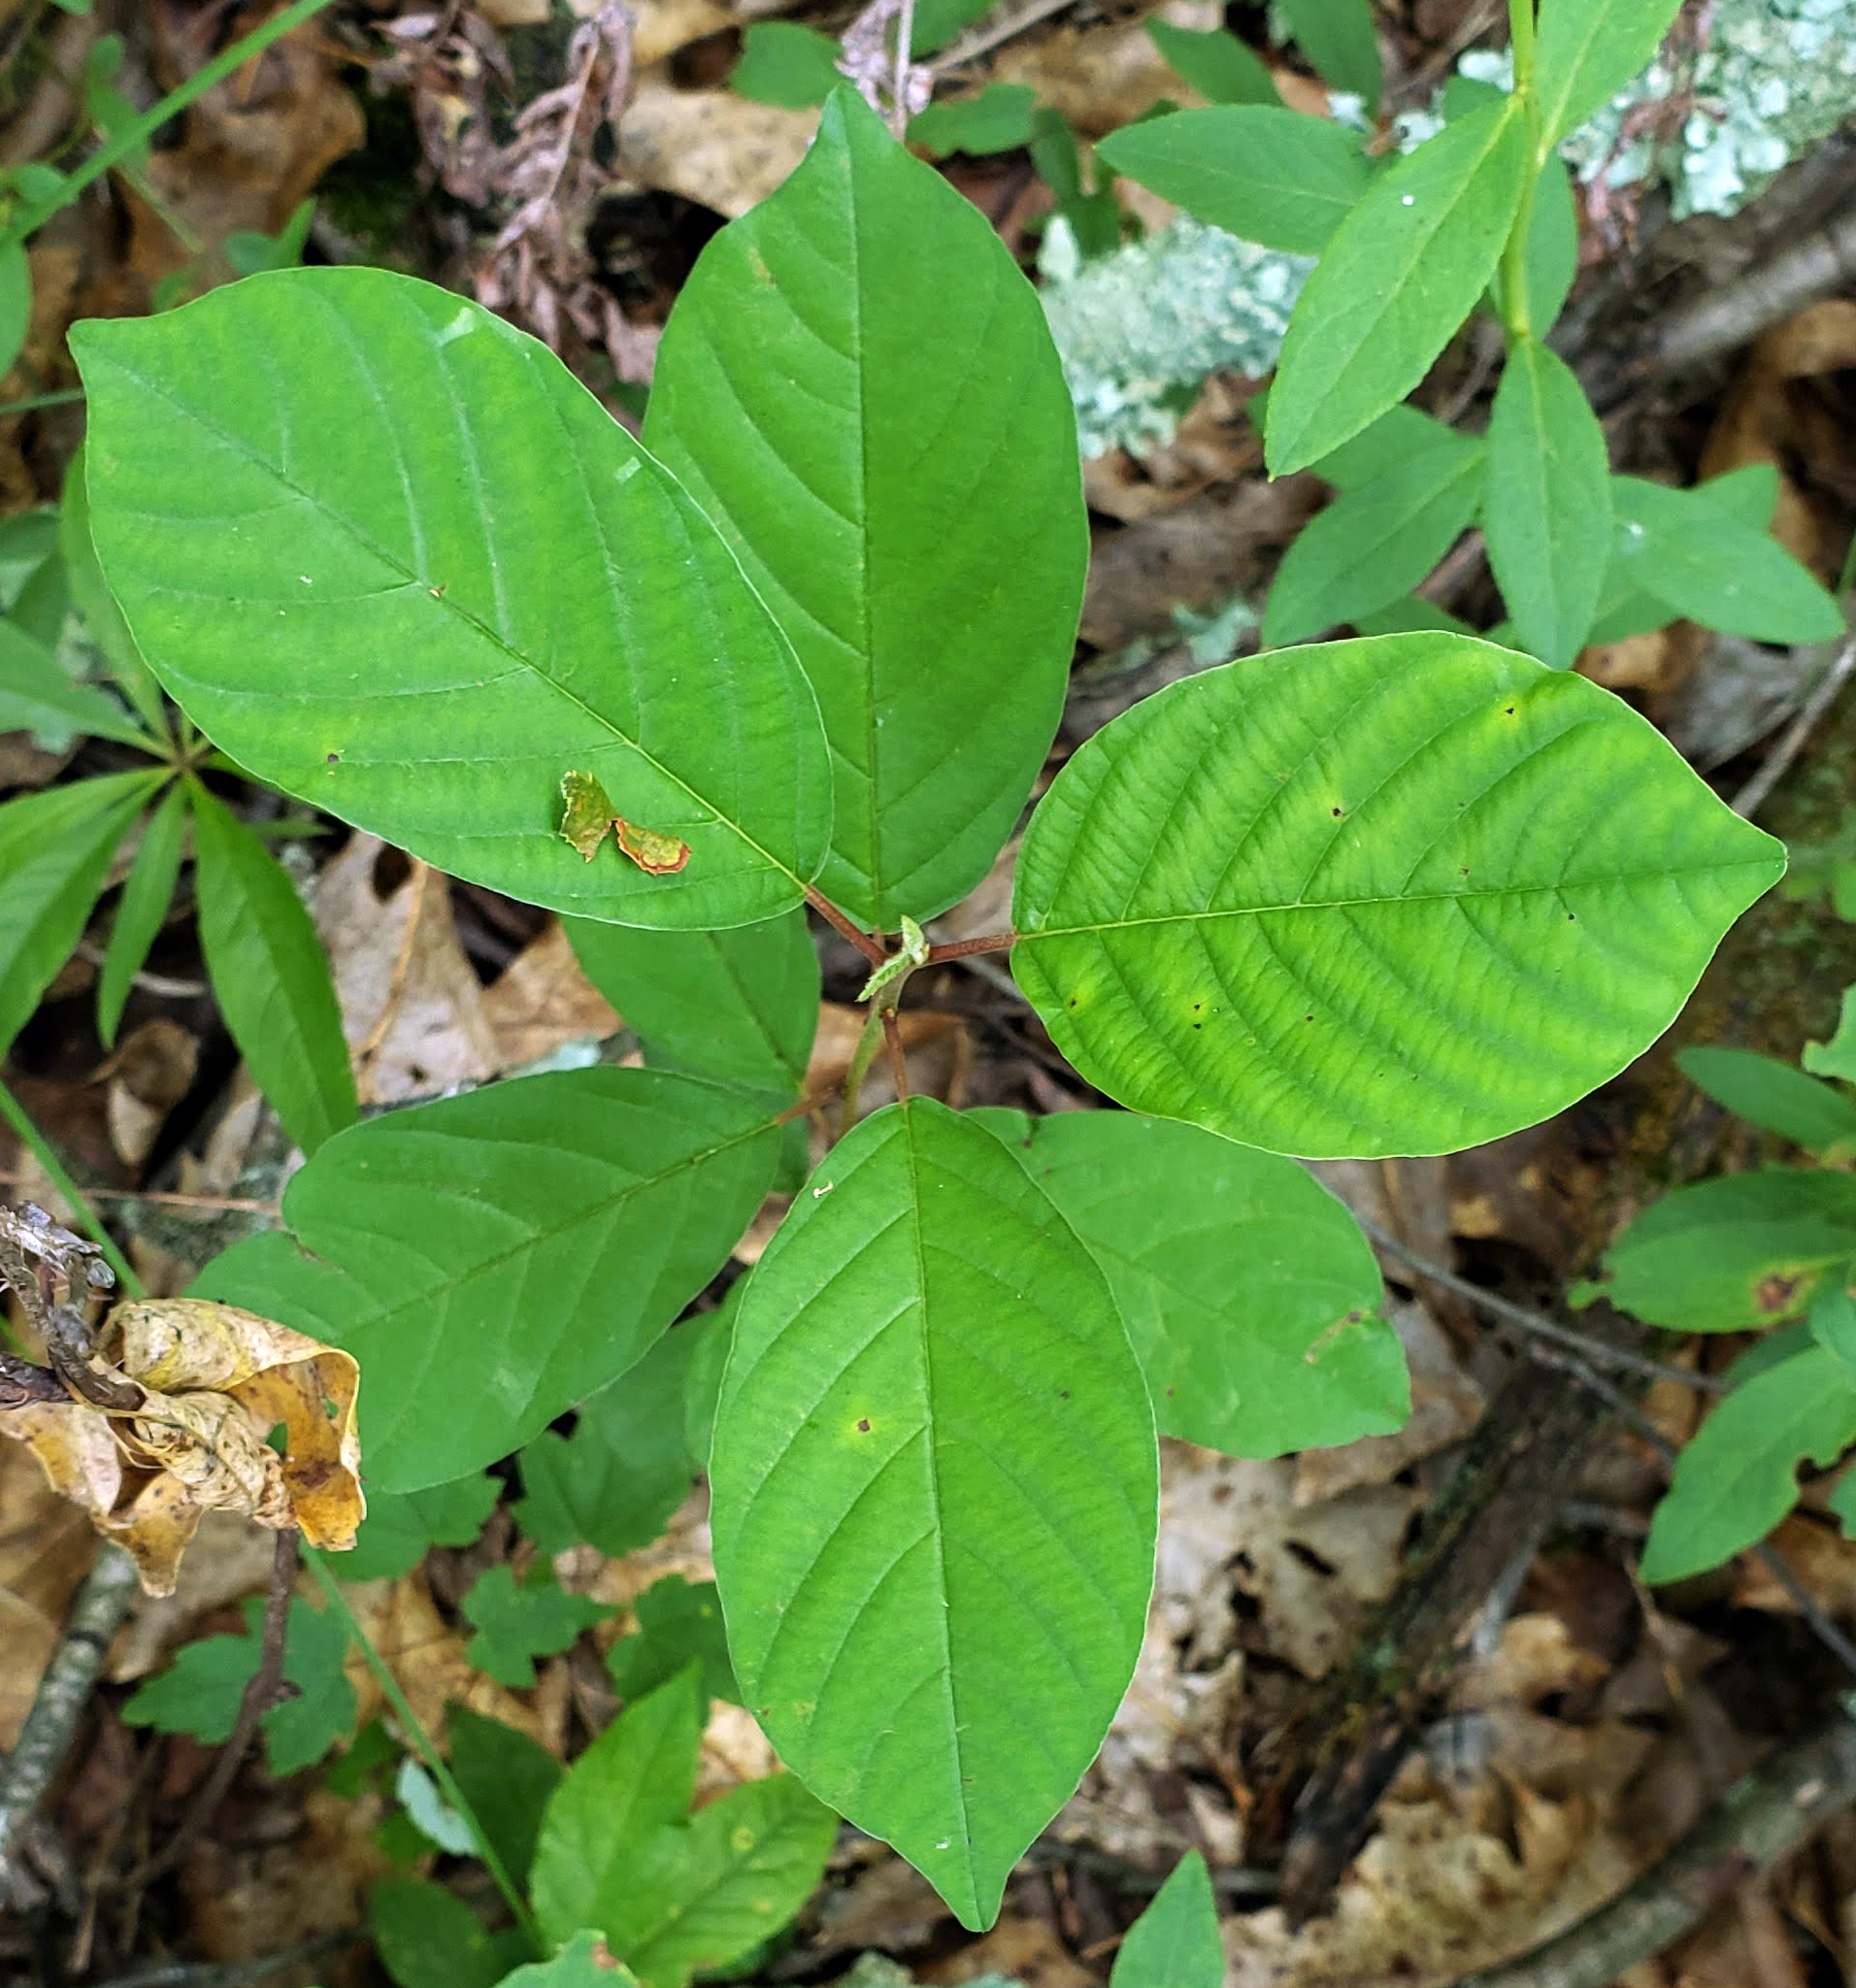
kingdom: Plantae
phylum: Tracheophyta
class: Magnoliopsida
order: Rosales
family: Rhamnaceae
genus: Frangula
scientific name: Frangula alnus
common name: Alder buckthorn
